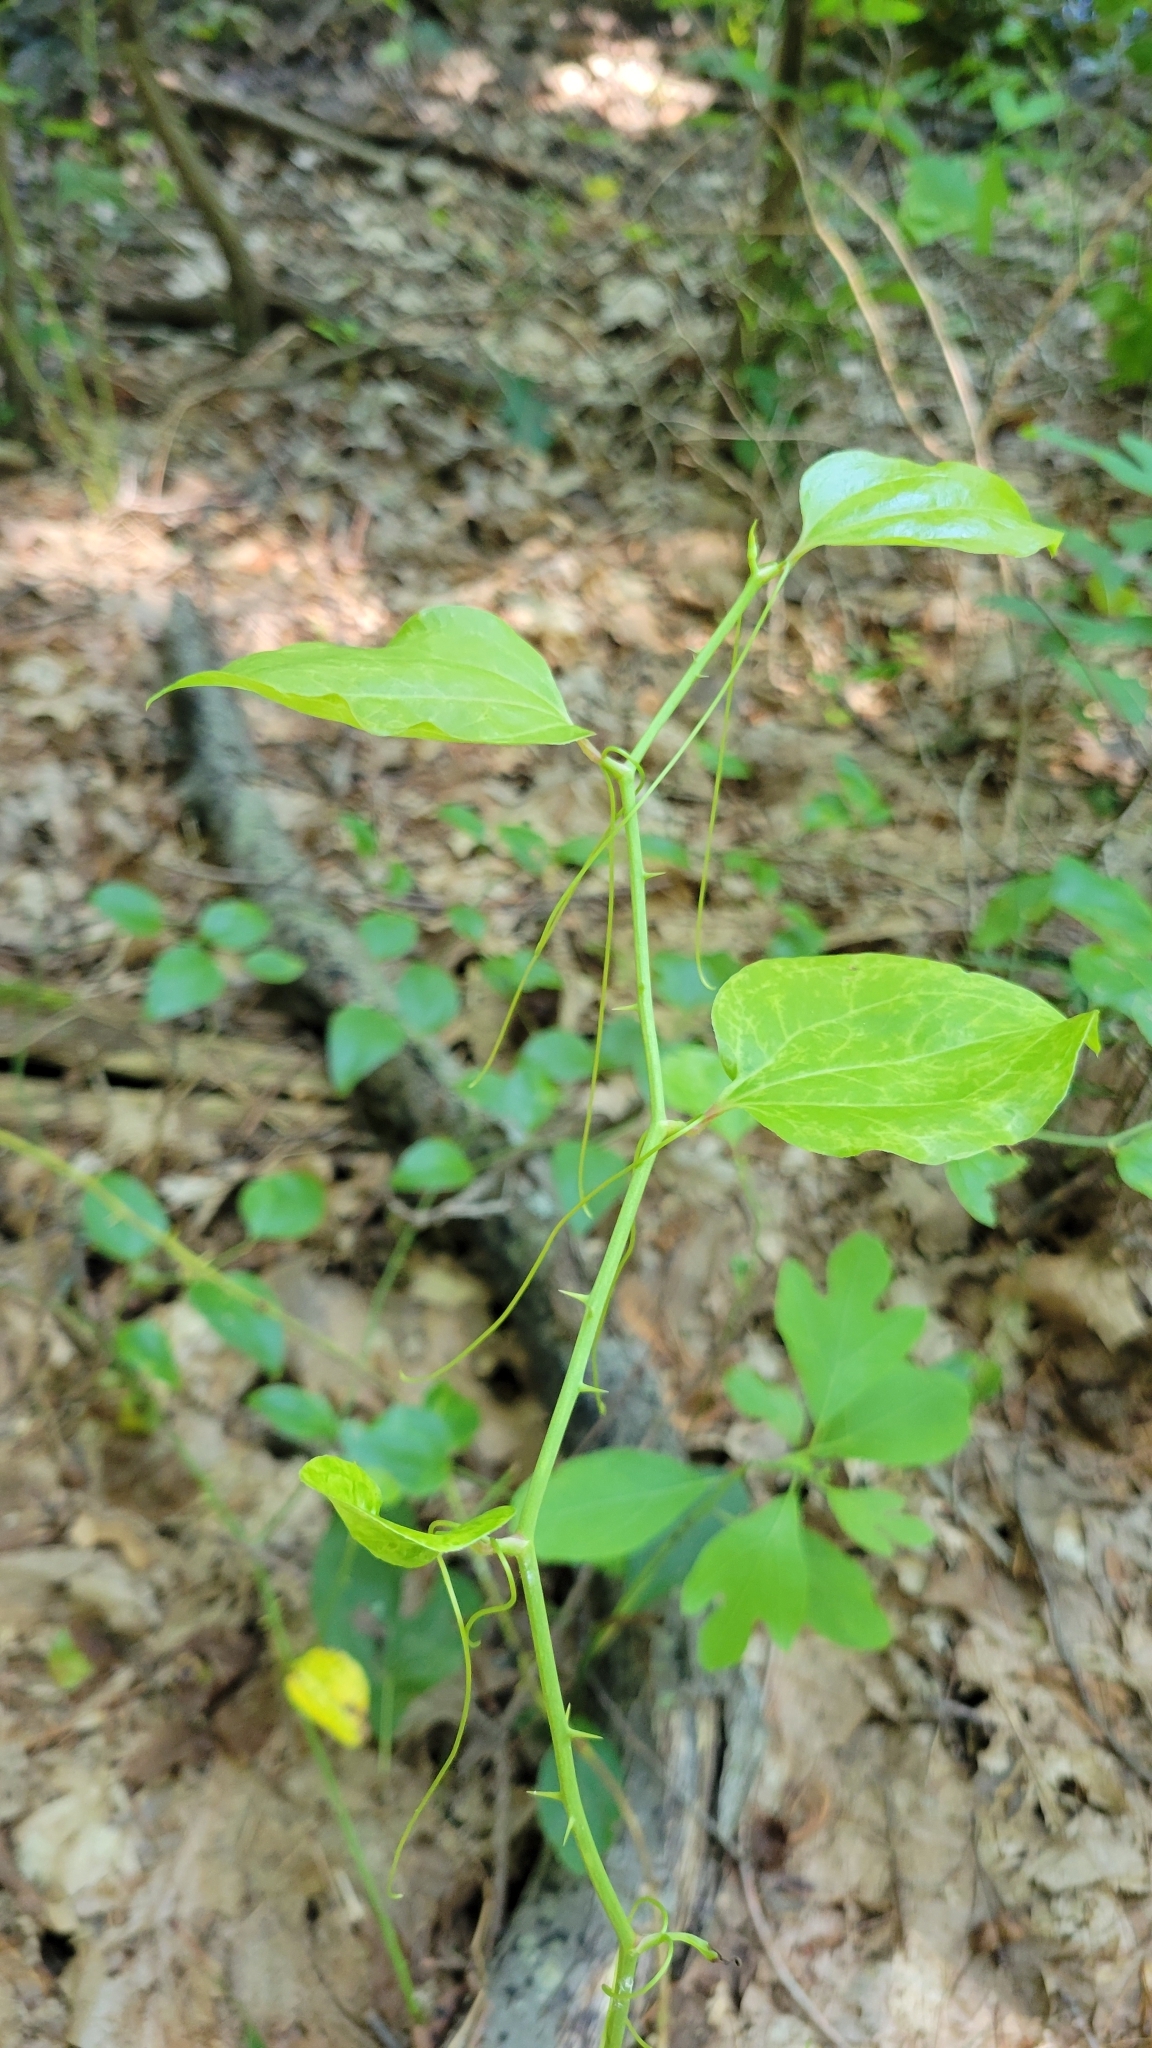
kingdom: Plantae
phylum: Tracheophyta
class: Liliopsida
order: Liliales
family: Smilacaceae
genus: Smilax
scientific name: Smilax rotundifolia
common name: Bullbriar
